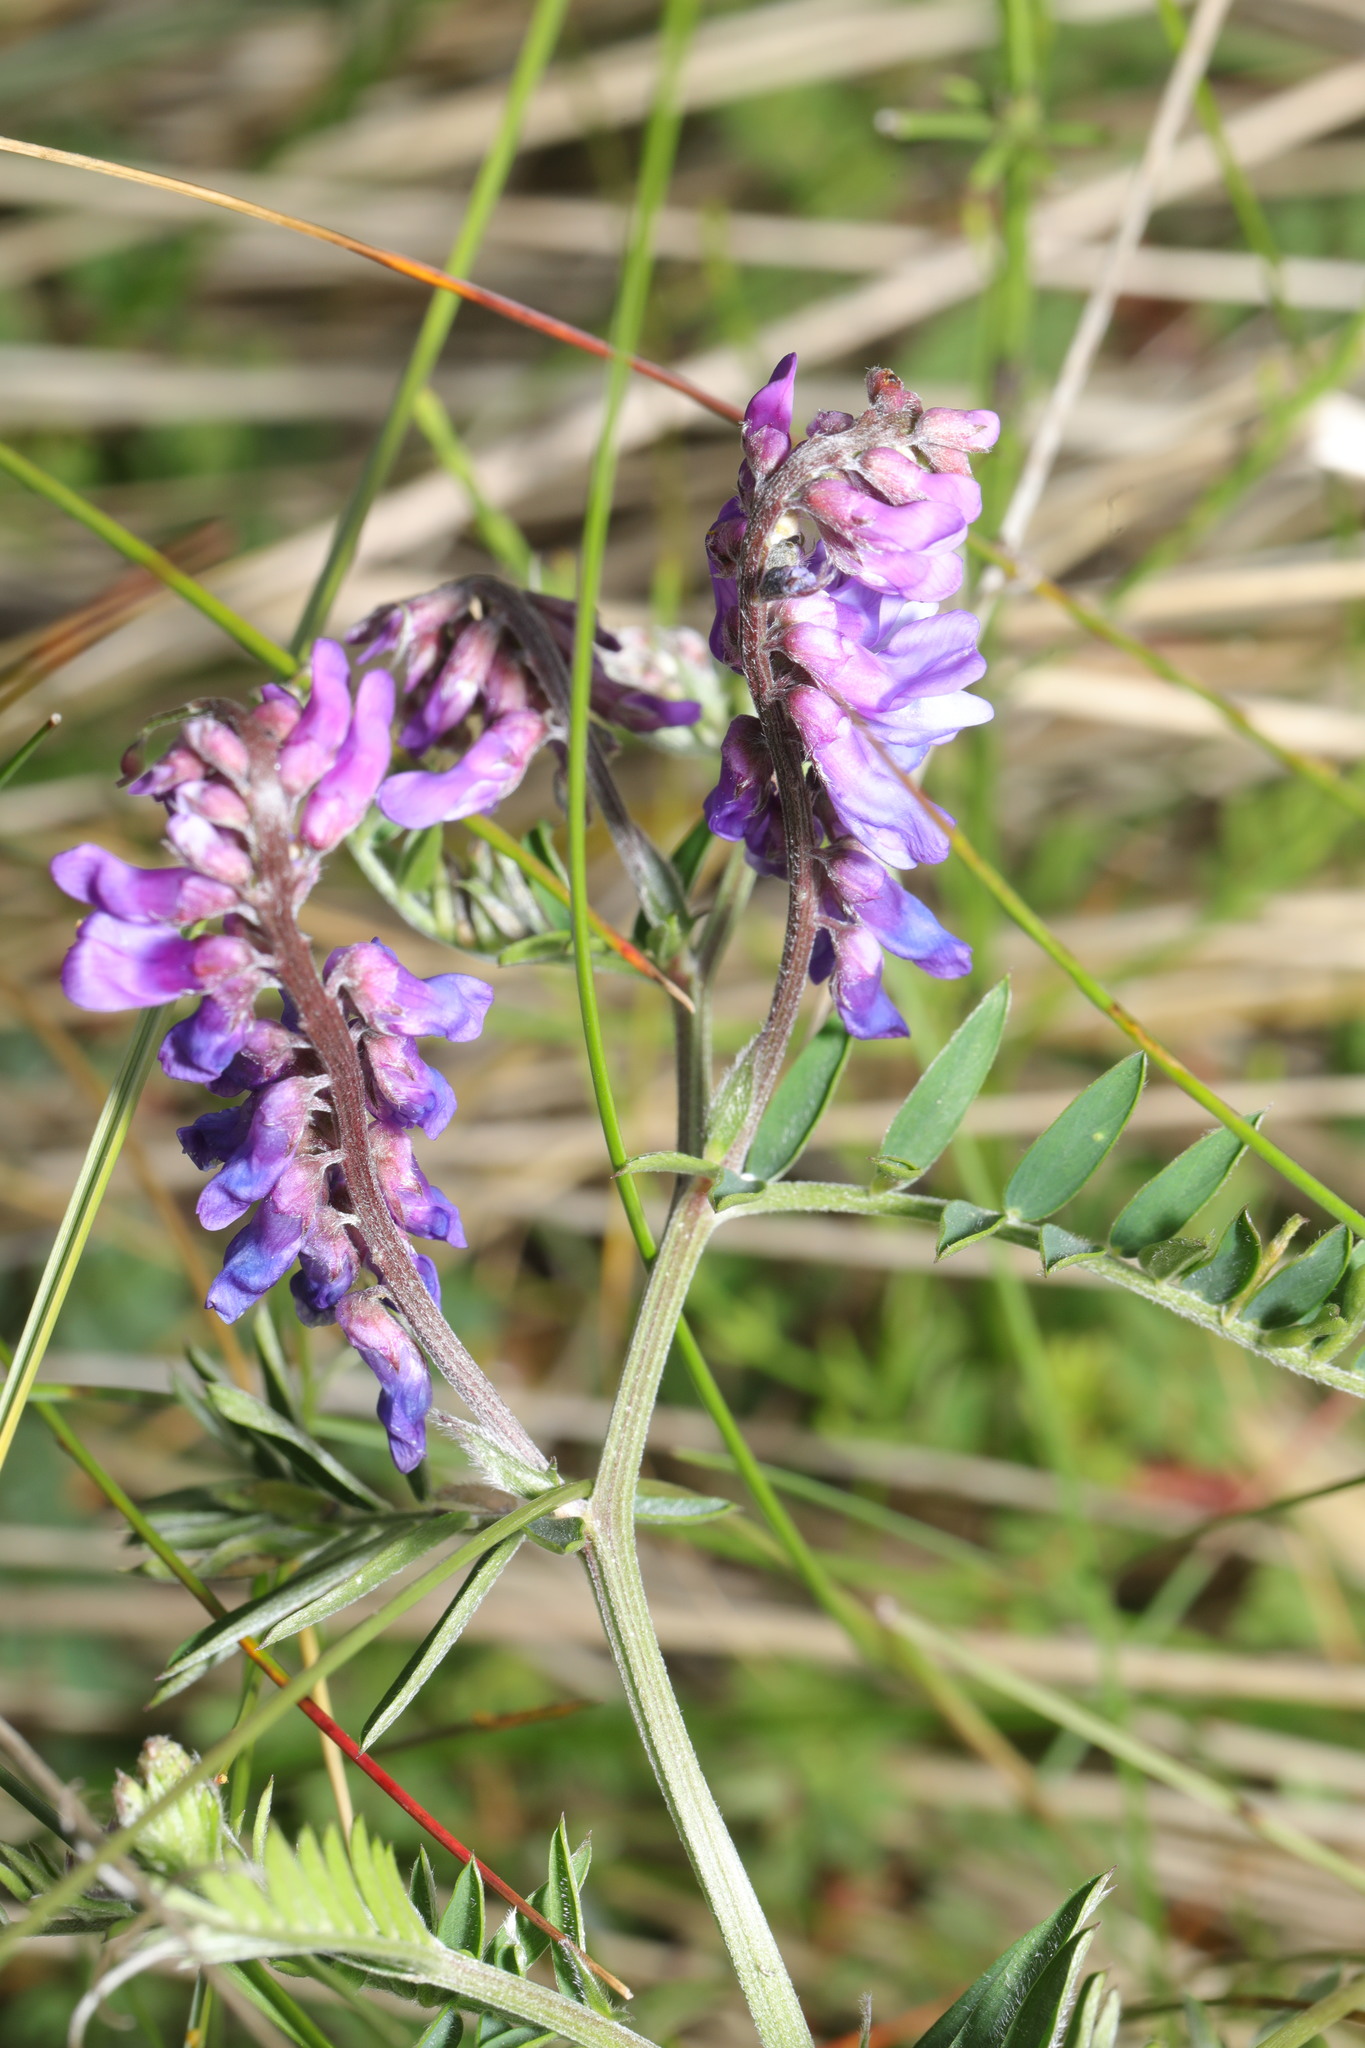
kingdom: Plantae
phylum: Tracheophyta
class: Magnoliopsida
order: Fabales
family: Fabaceae
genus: Vicia
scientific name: Vicia cracca
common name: Bird vetch
